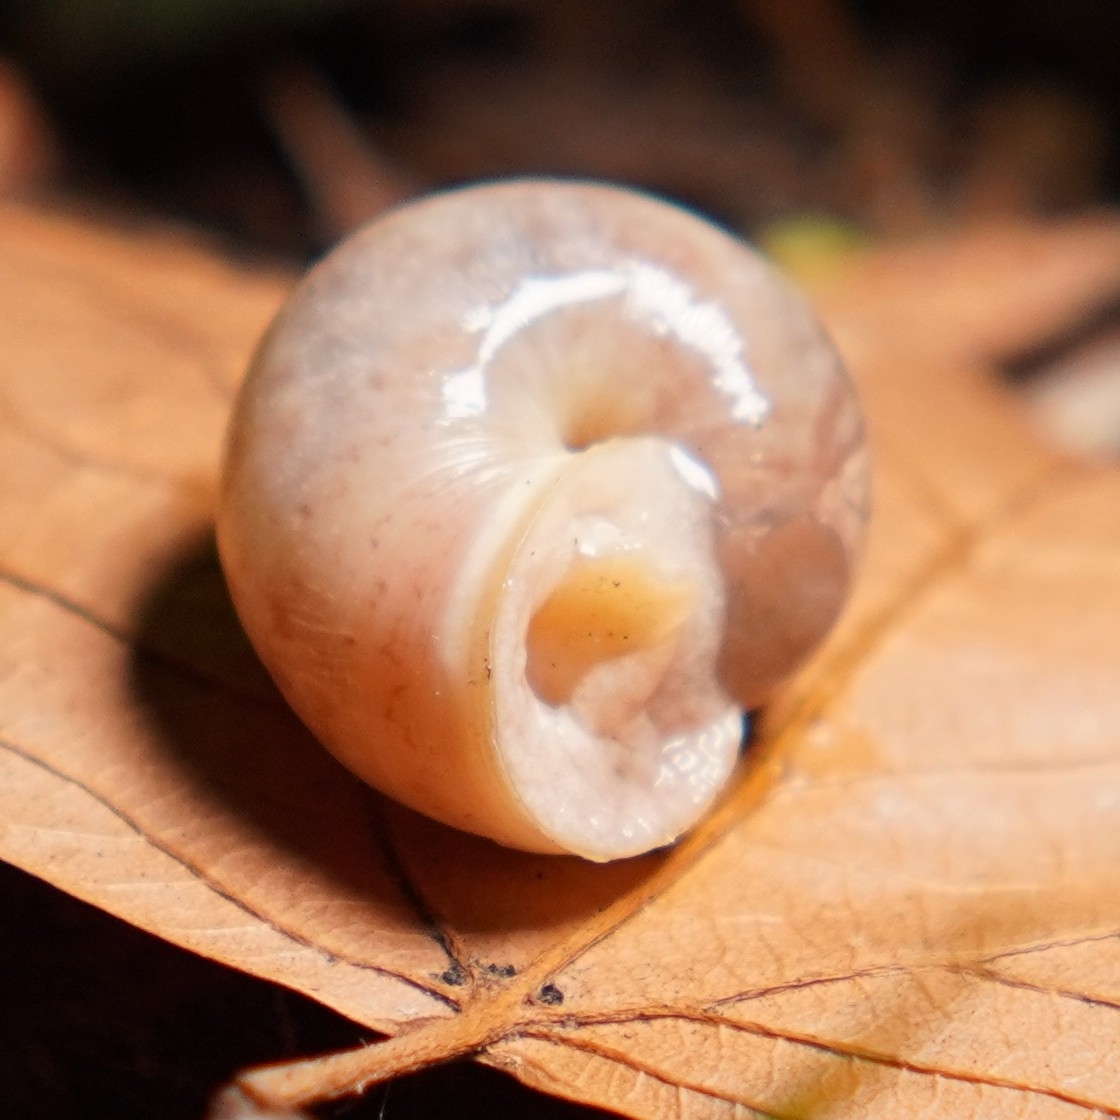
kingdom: Animalia
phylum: Mollusca
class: Gastropoda
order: Stylommatophora
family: Hygromiidae
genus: Monacha
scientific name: Monacha cantiana
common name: Kentish snail
